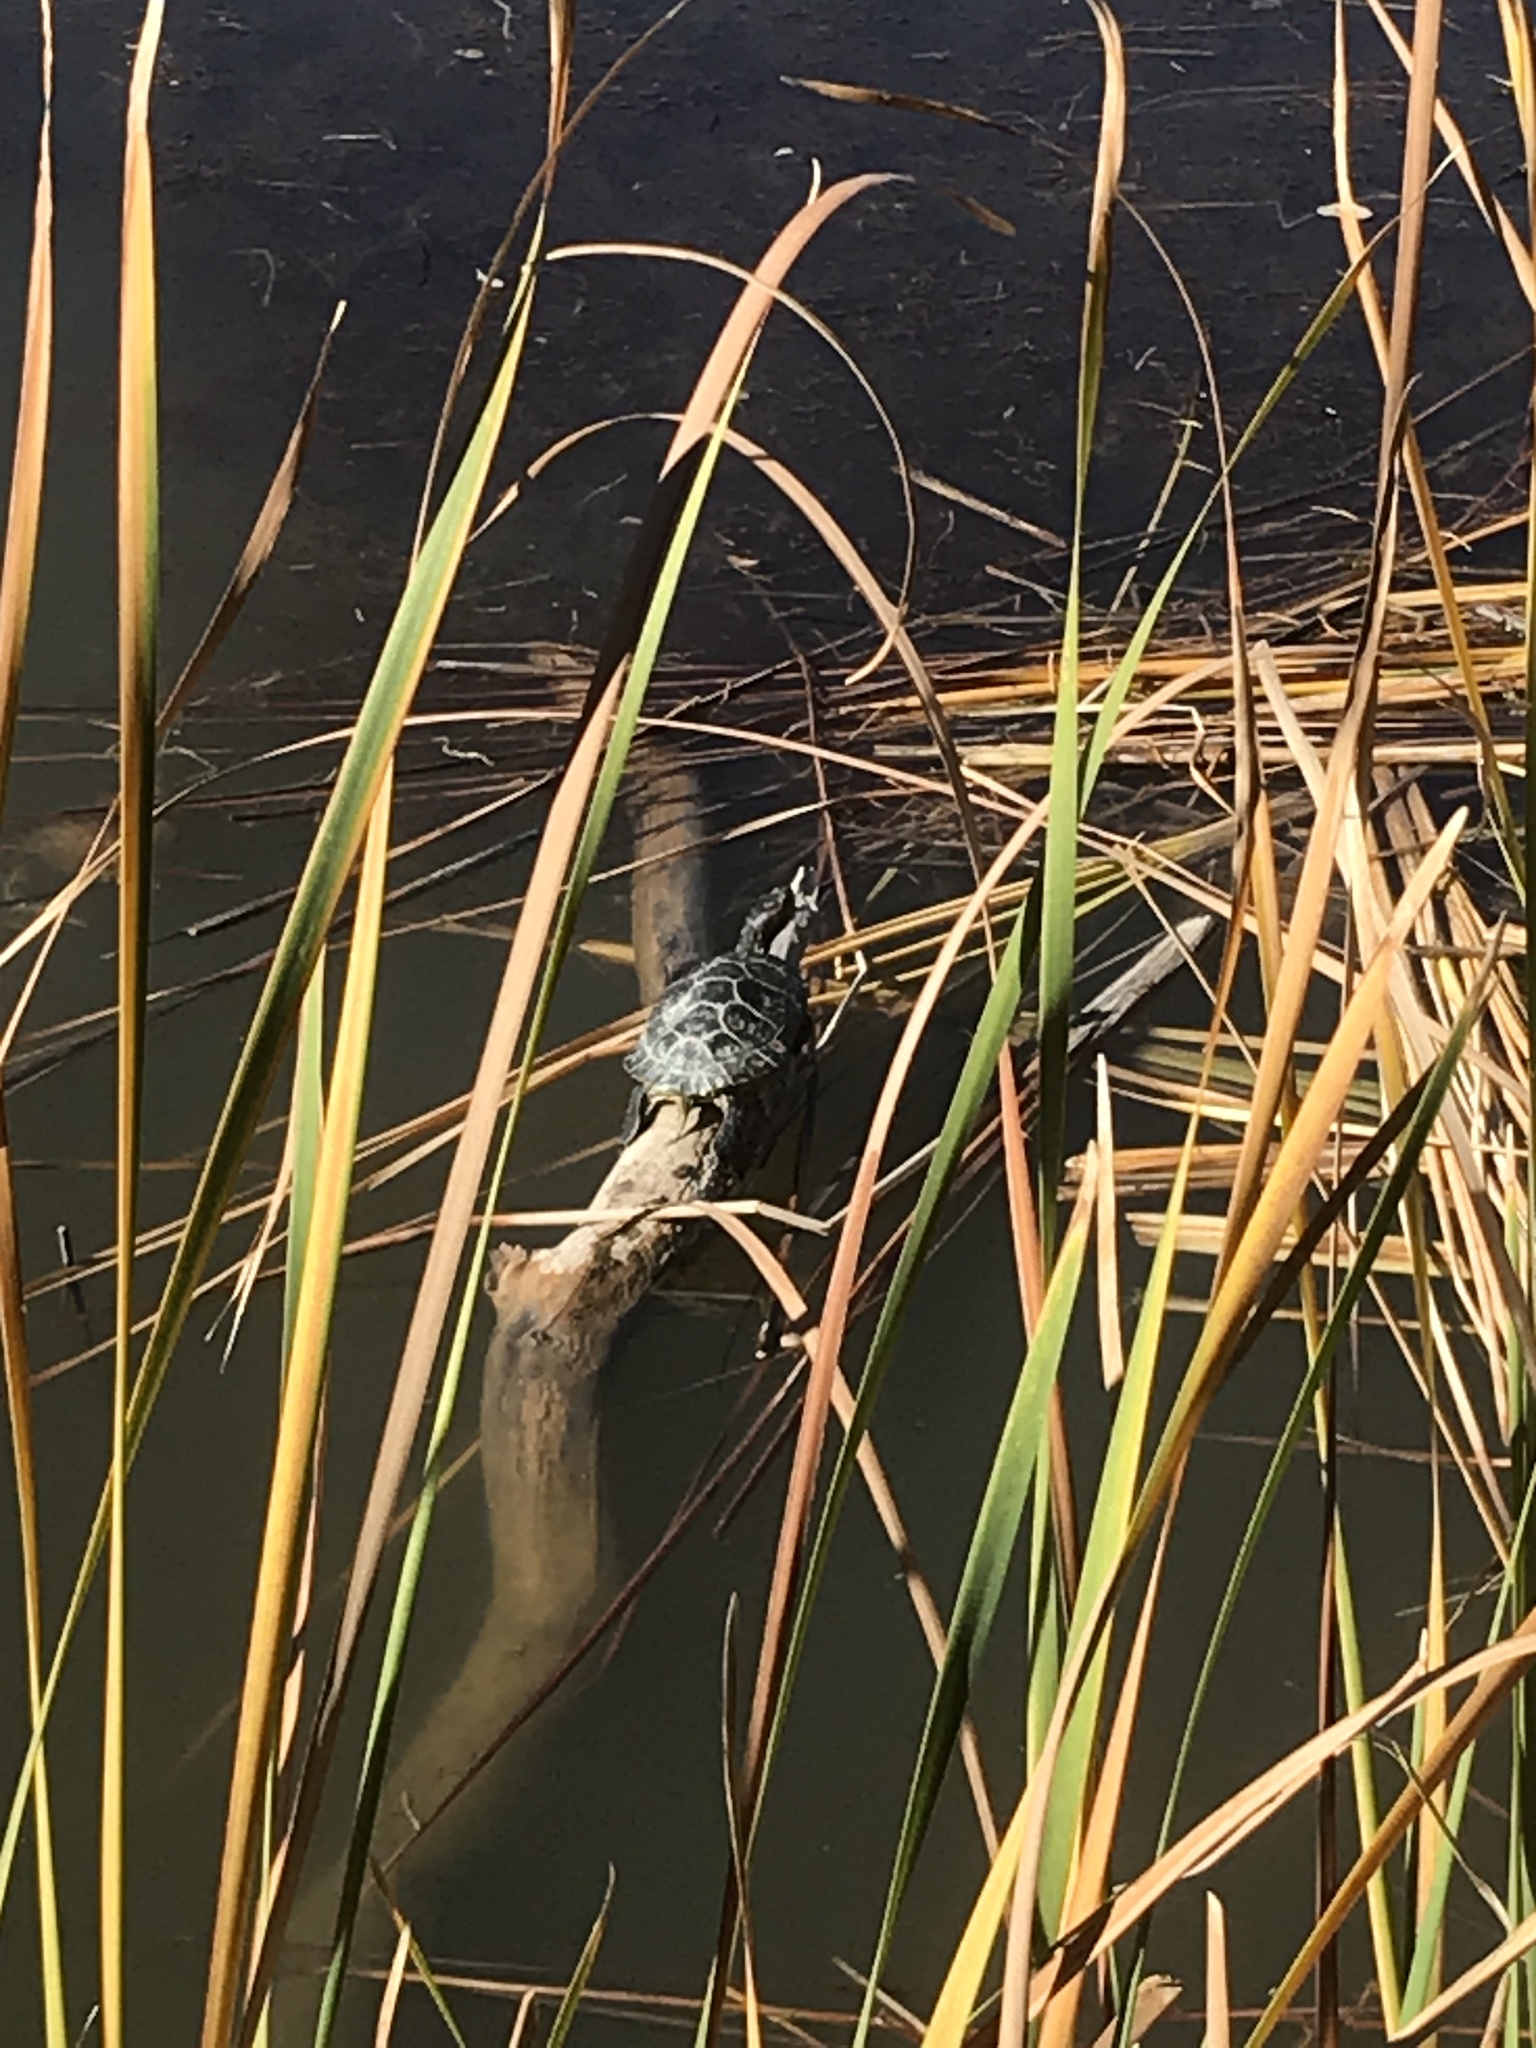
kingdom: Animalia
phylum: Chordata
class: Testudines
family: Emydidae
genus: Trachemys
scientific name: Trachemys scripta
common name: Slider
